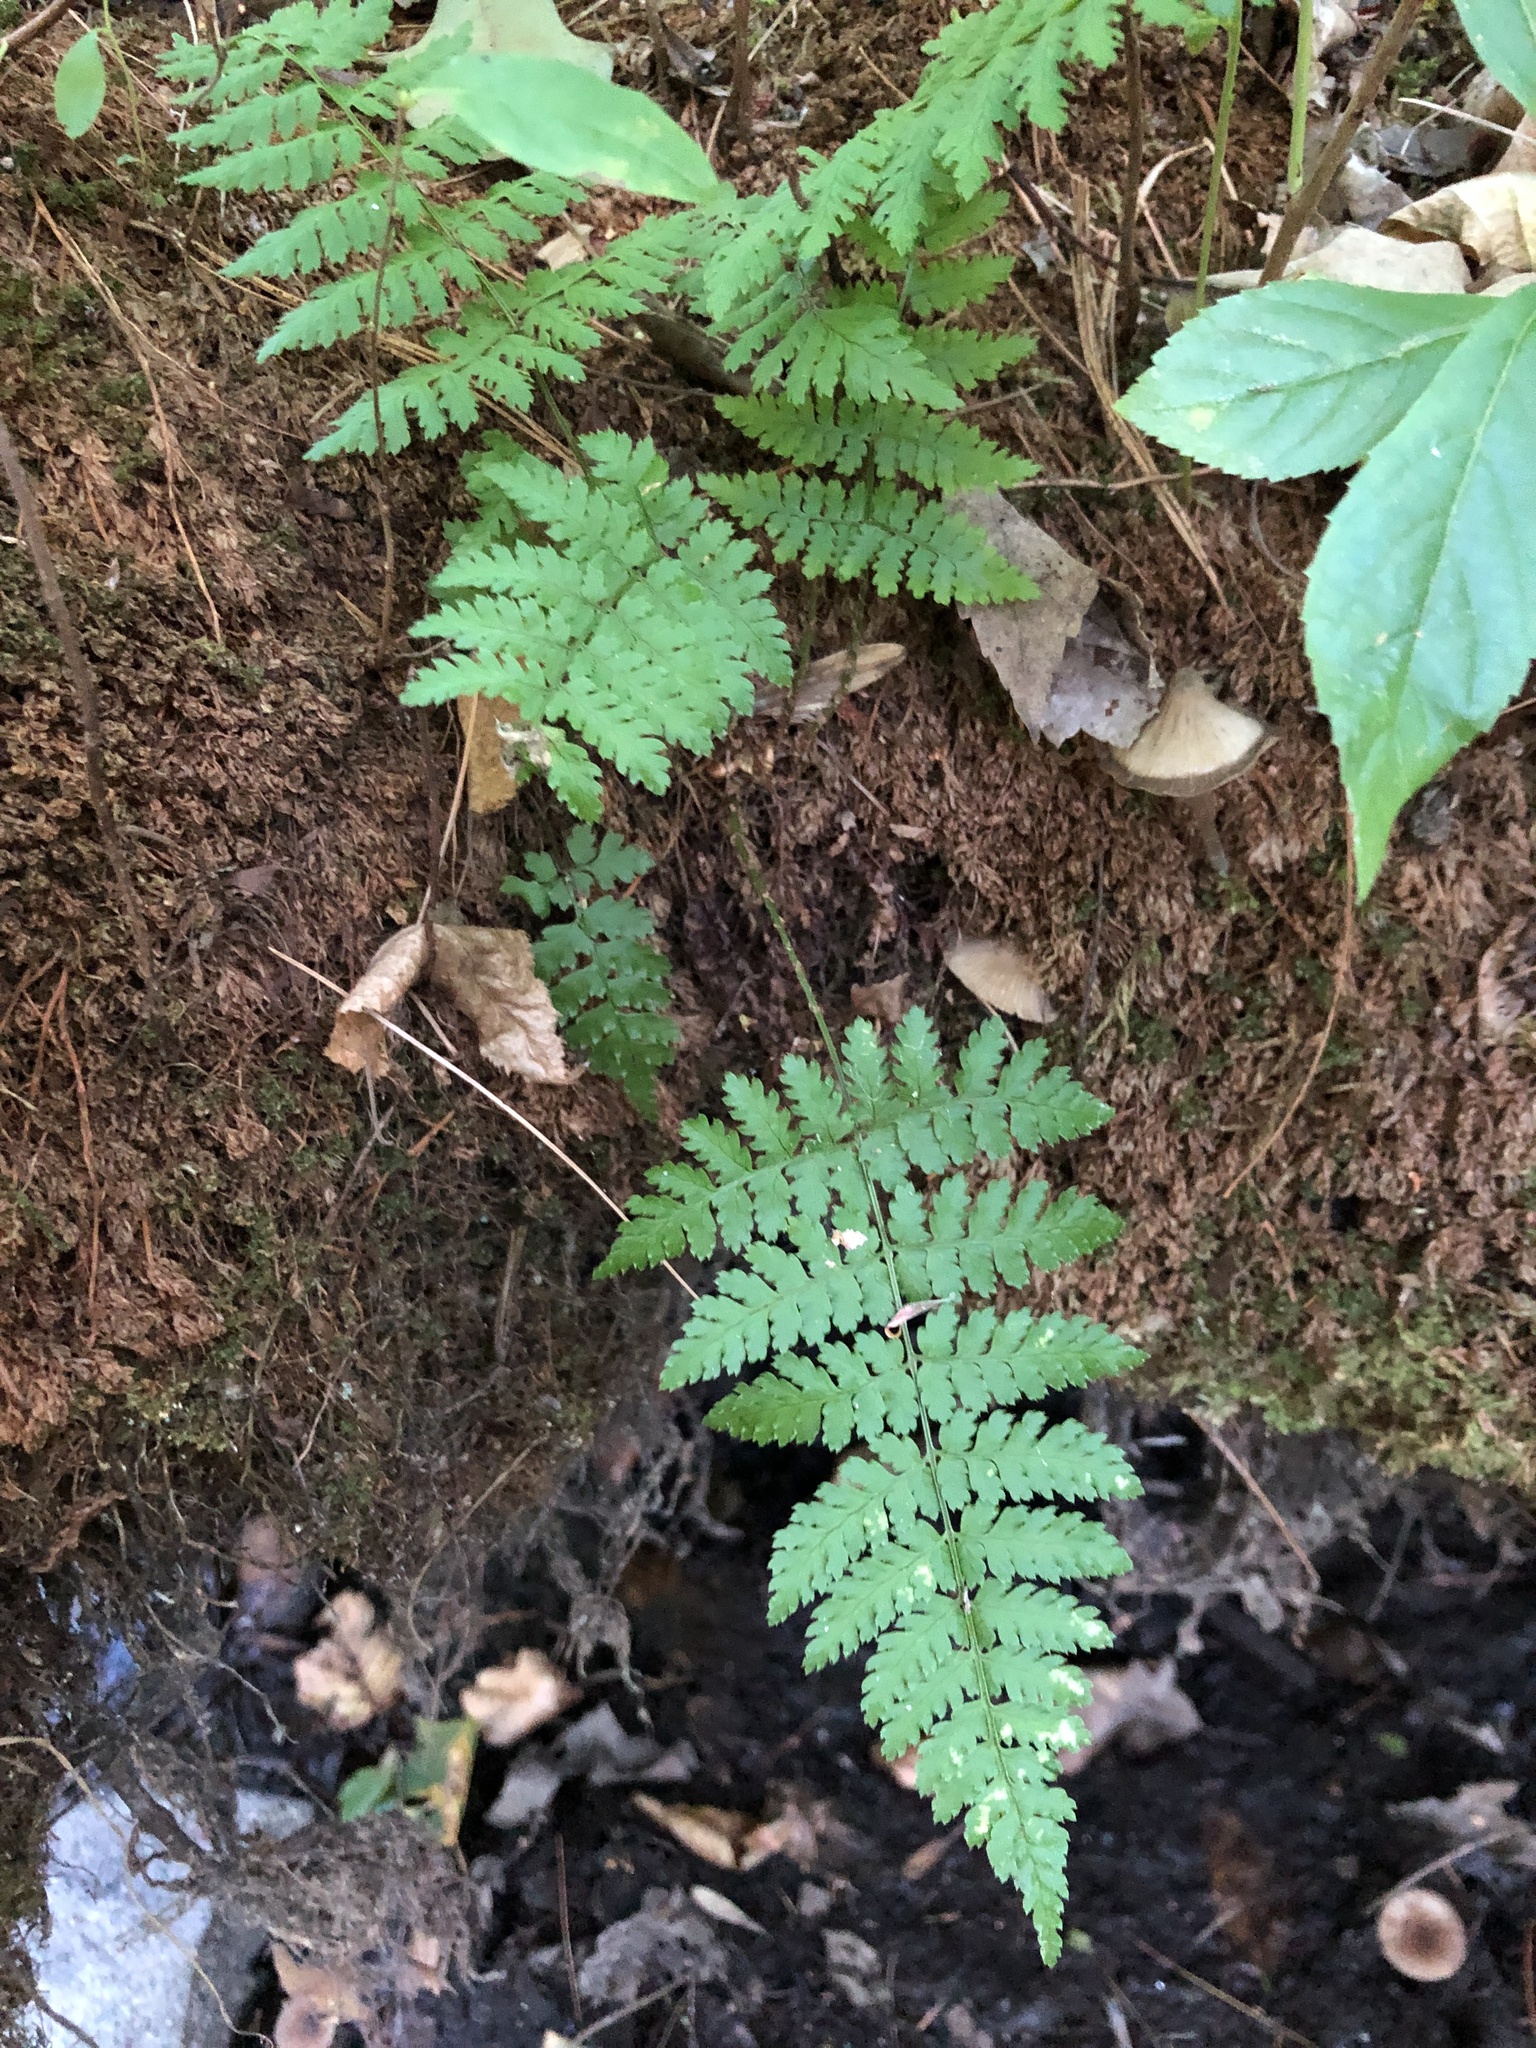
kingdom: Plantae
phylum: Tracheophyta
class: Polypodiopsida
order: Polypodiales
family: Dryopteridaceae
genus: Dryopteris
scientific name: Dryopteris intermedia
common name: Evergreen wood fern
